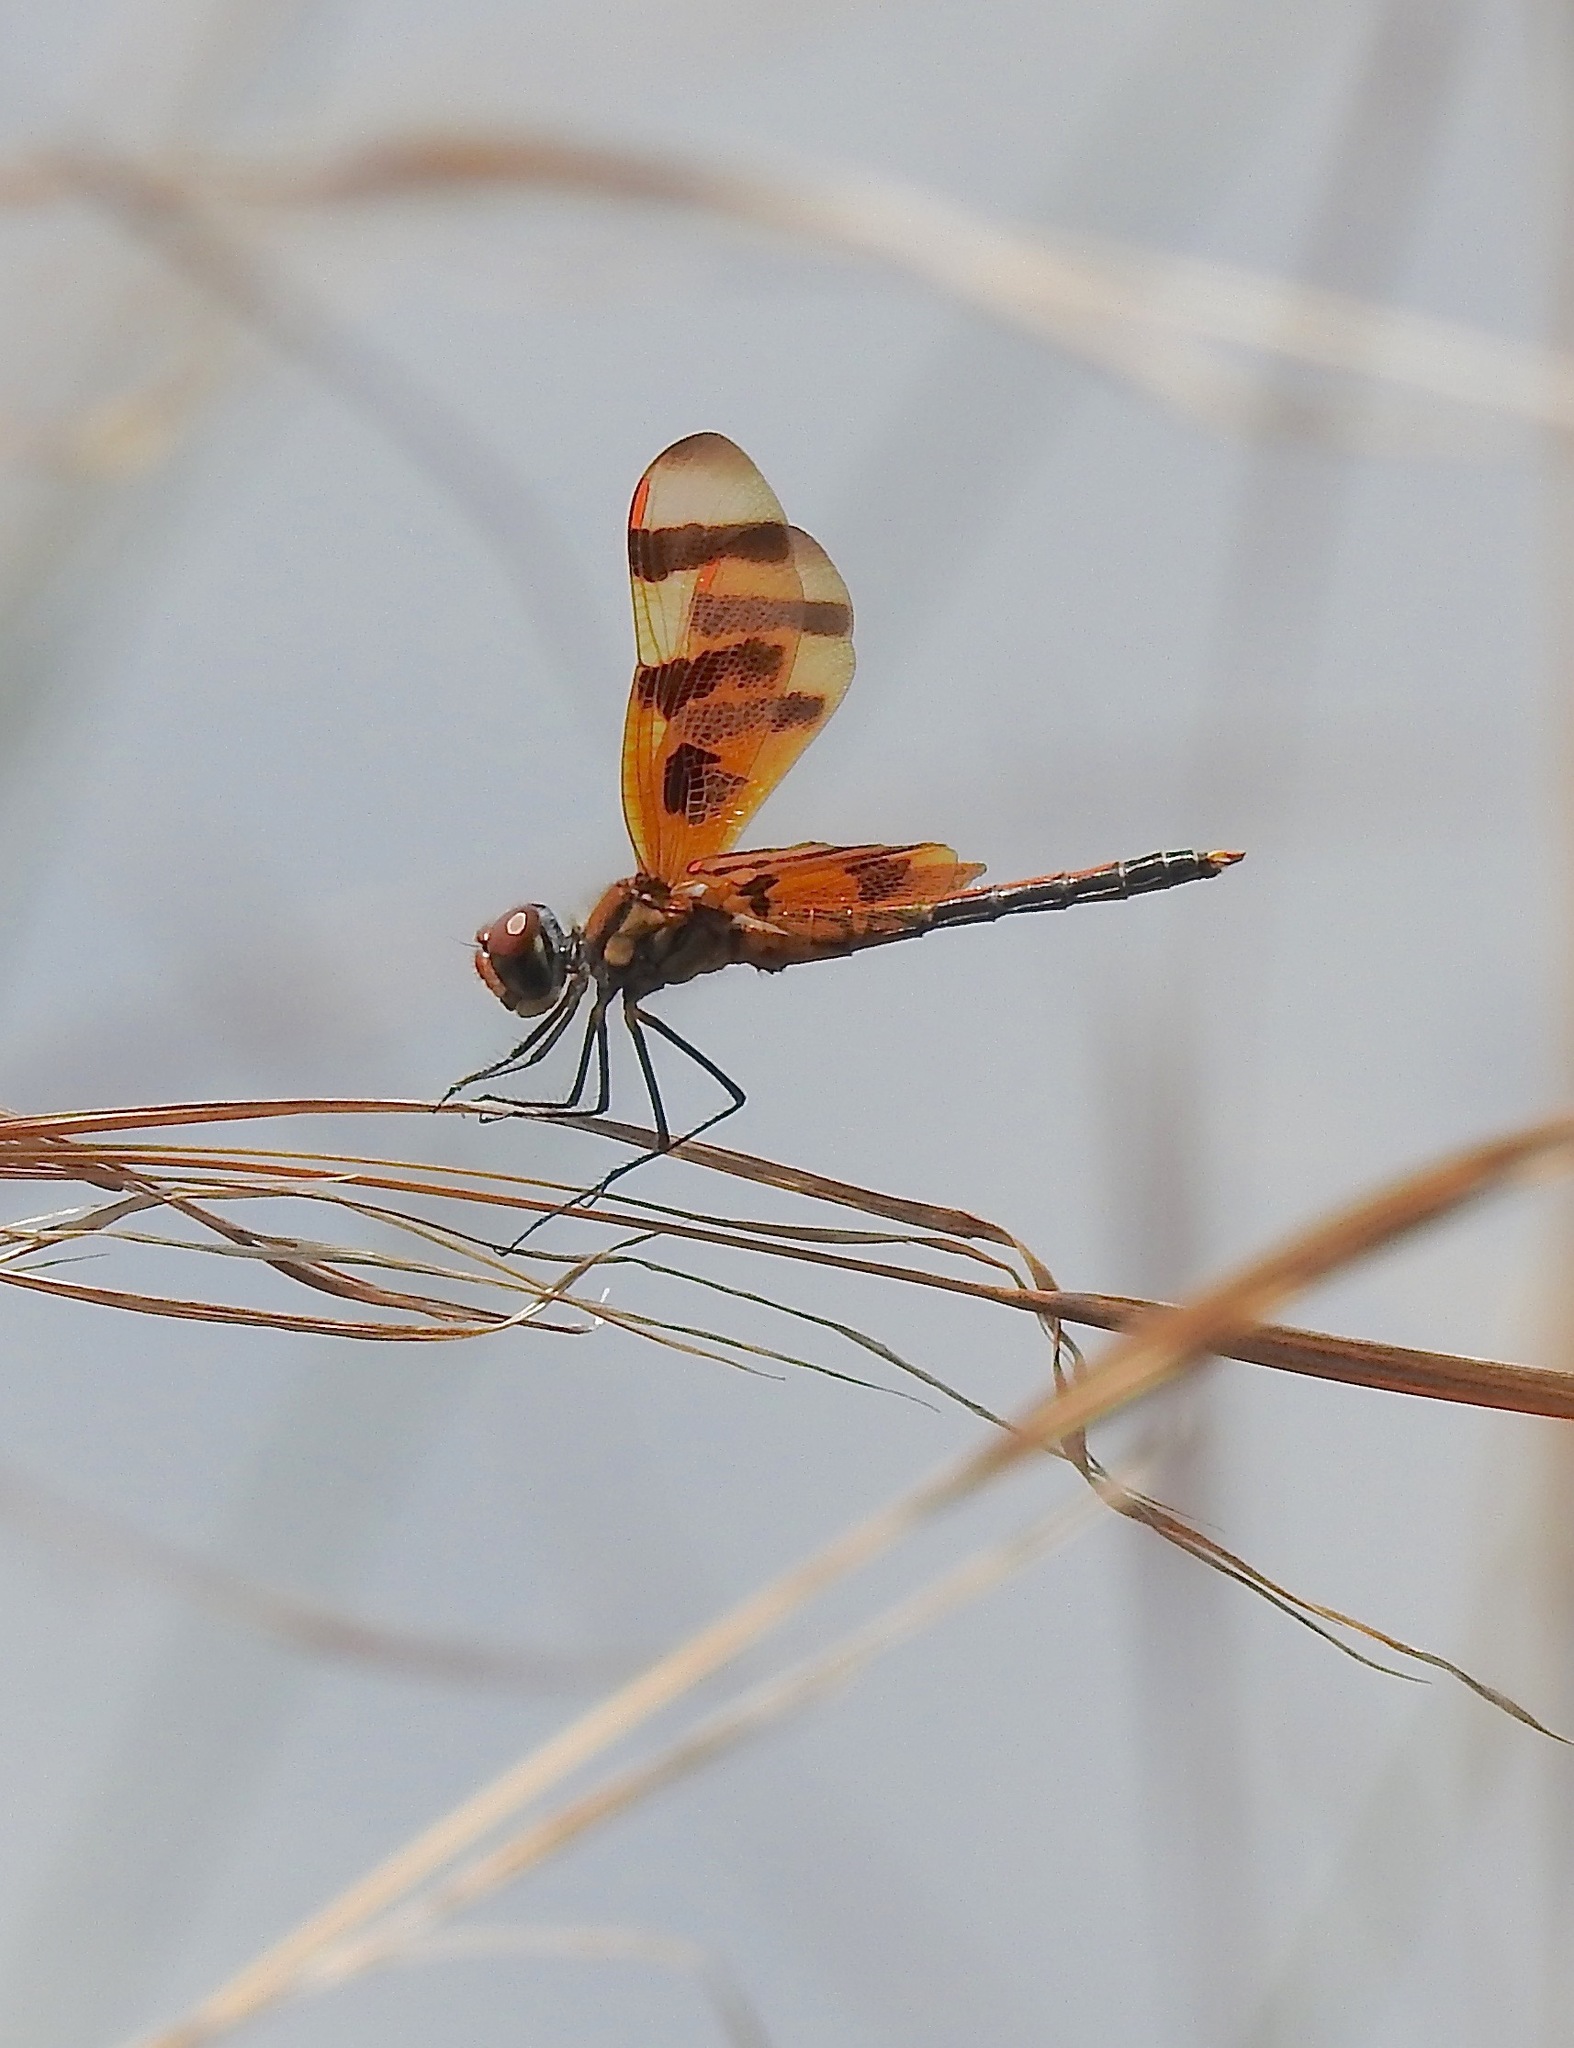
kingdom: Animalia
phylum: Arthropoda
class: Insecta
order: Odonata
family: Libellulidae
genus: Celithemis
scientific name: Celithemis eponina
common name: Halloween pennant
